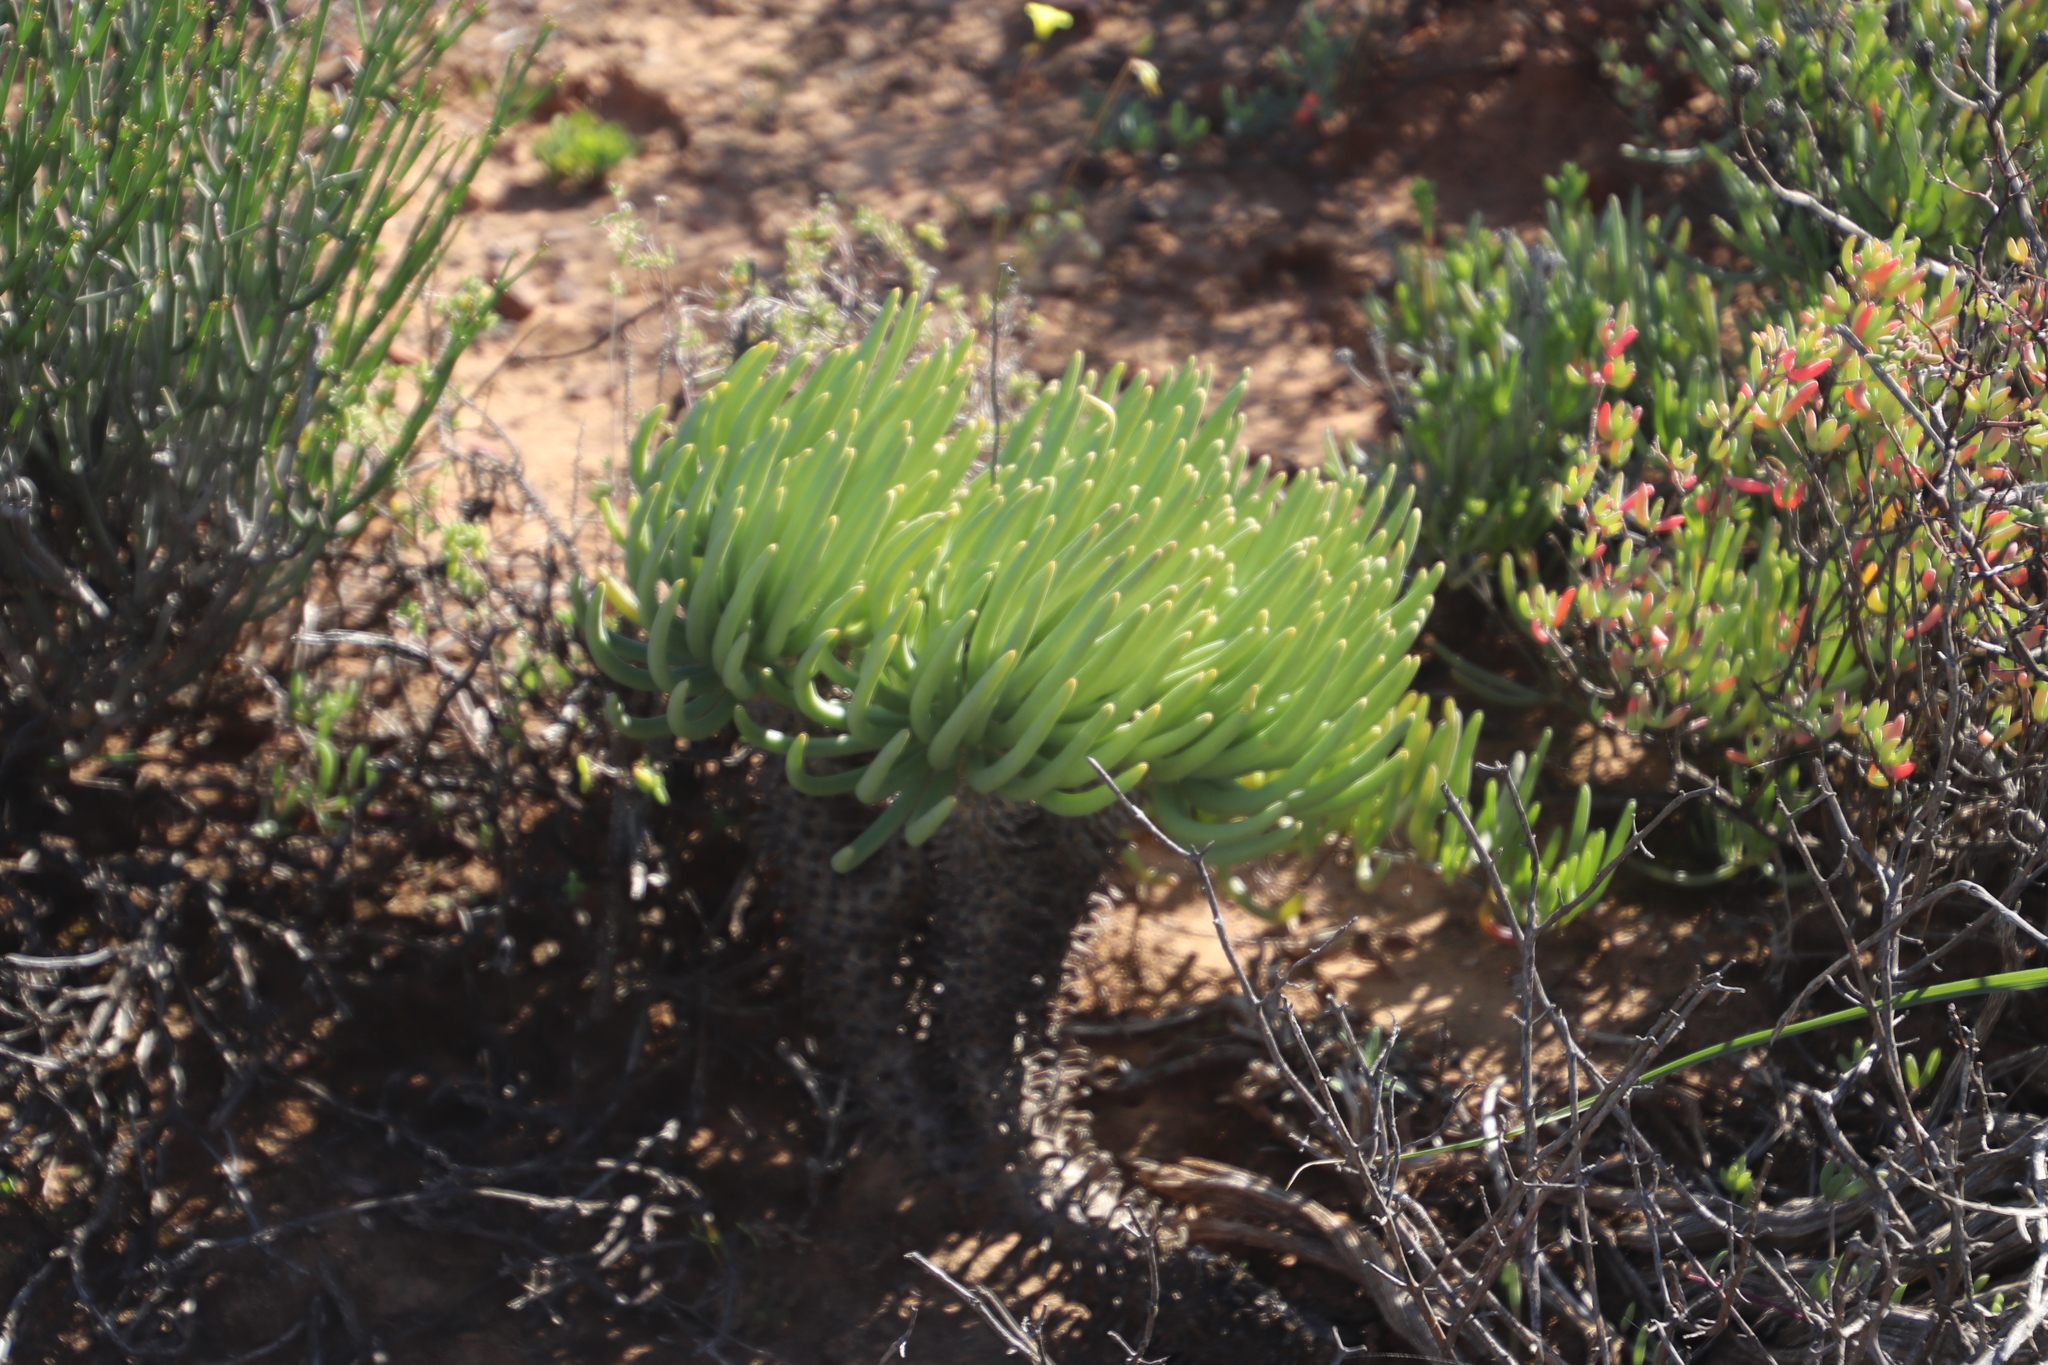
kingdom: Plantae
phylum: Tracheophyta
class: Magnoliopsida
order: Saxifragales
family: Crassulaceae
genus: Tylecodon
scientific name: Tylecodon wallichii
